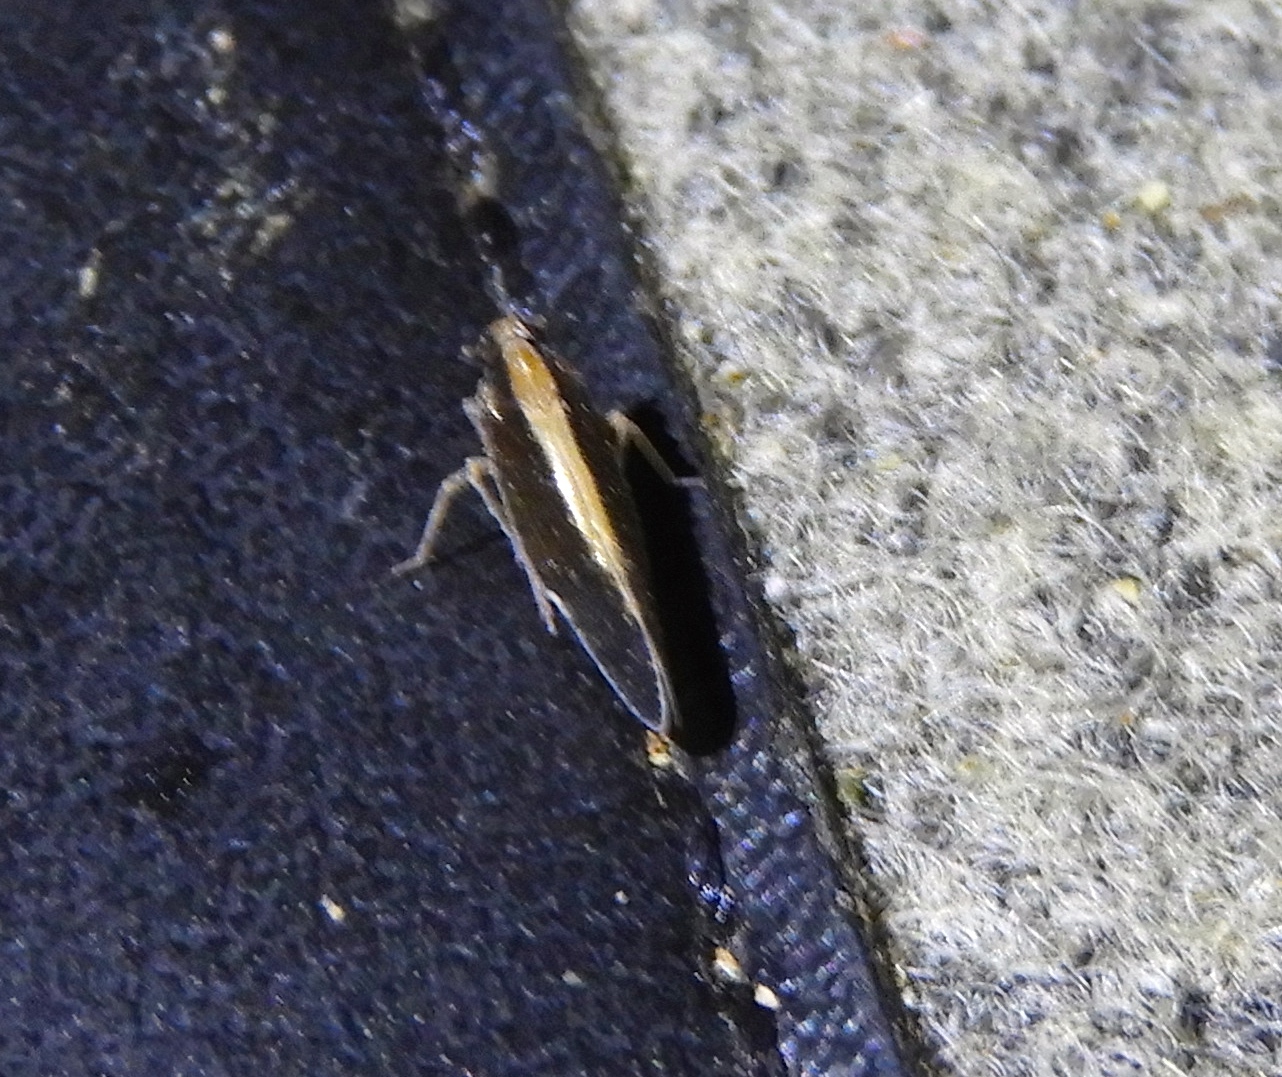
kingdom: Animalia
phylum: Arthropoda
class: Insecta
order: Hemiptera
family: Cixiidae
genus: Pintalia
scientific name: Pintalia
